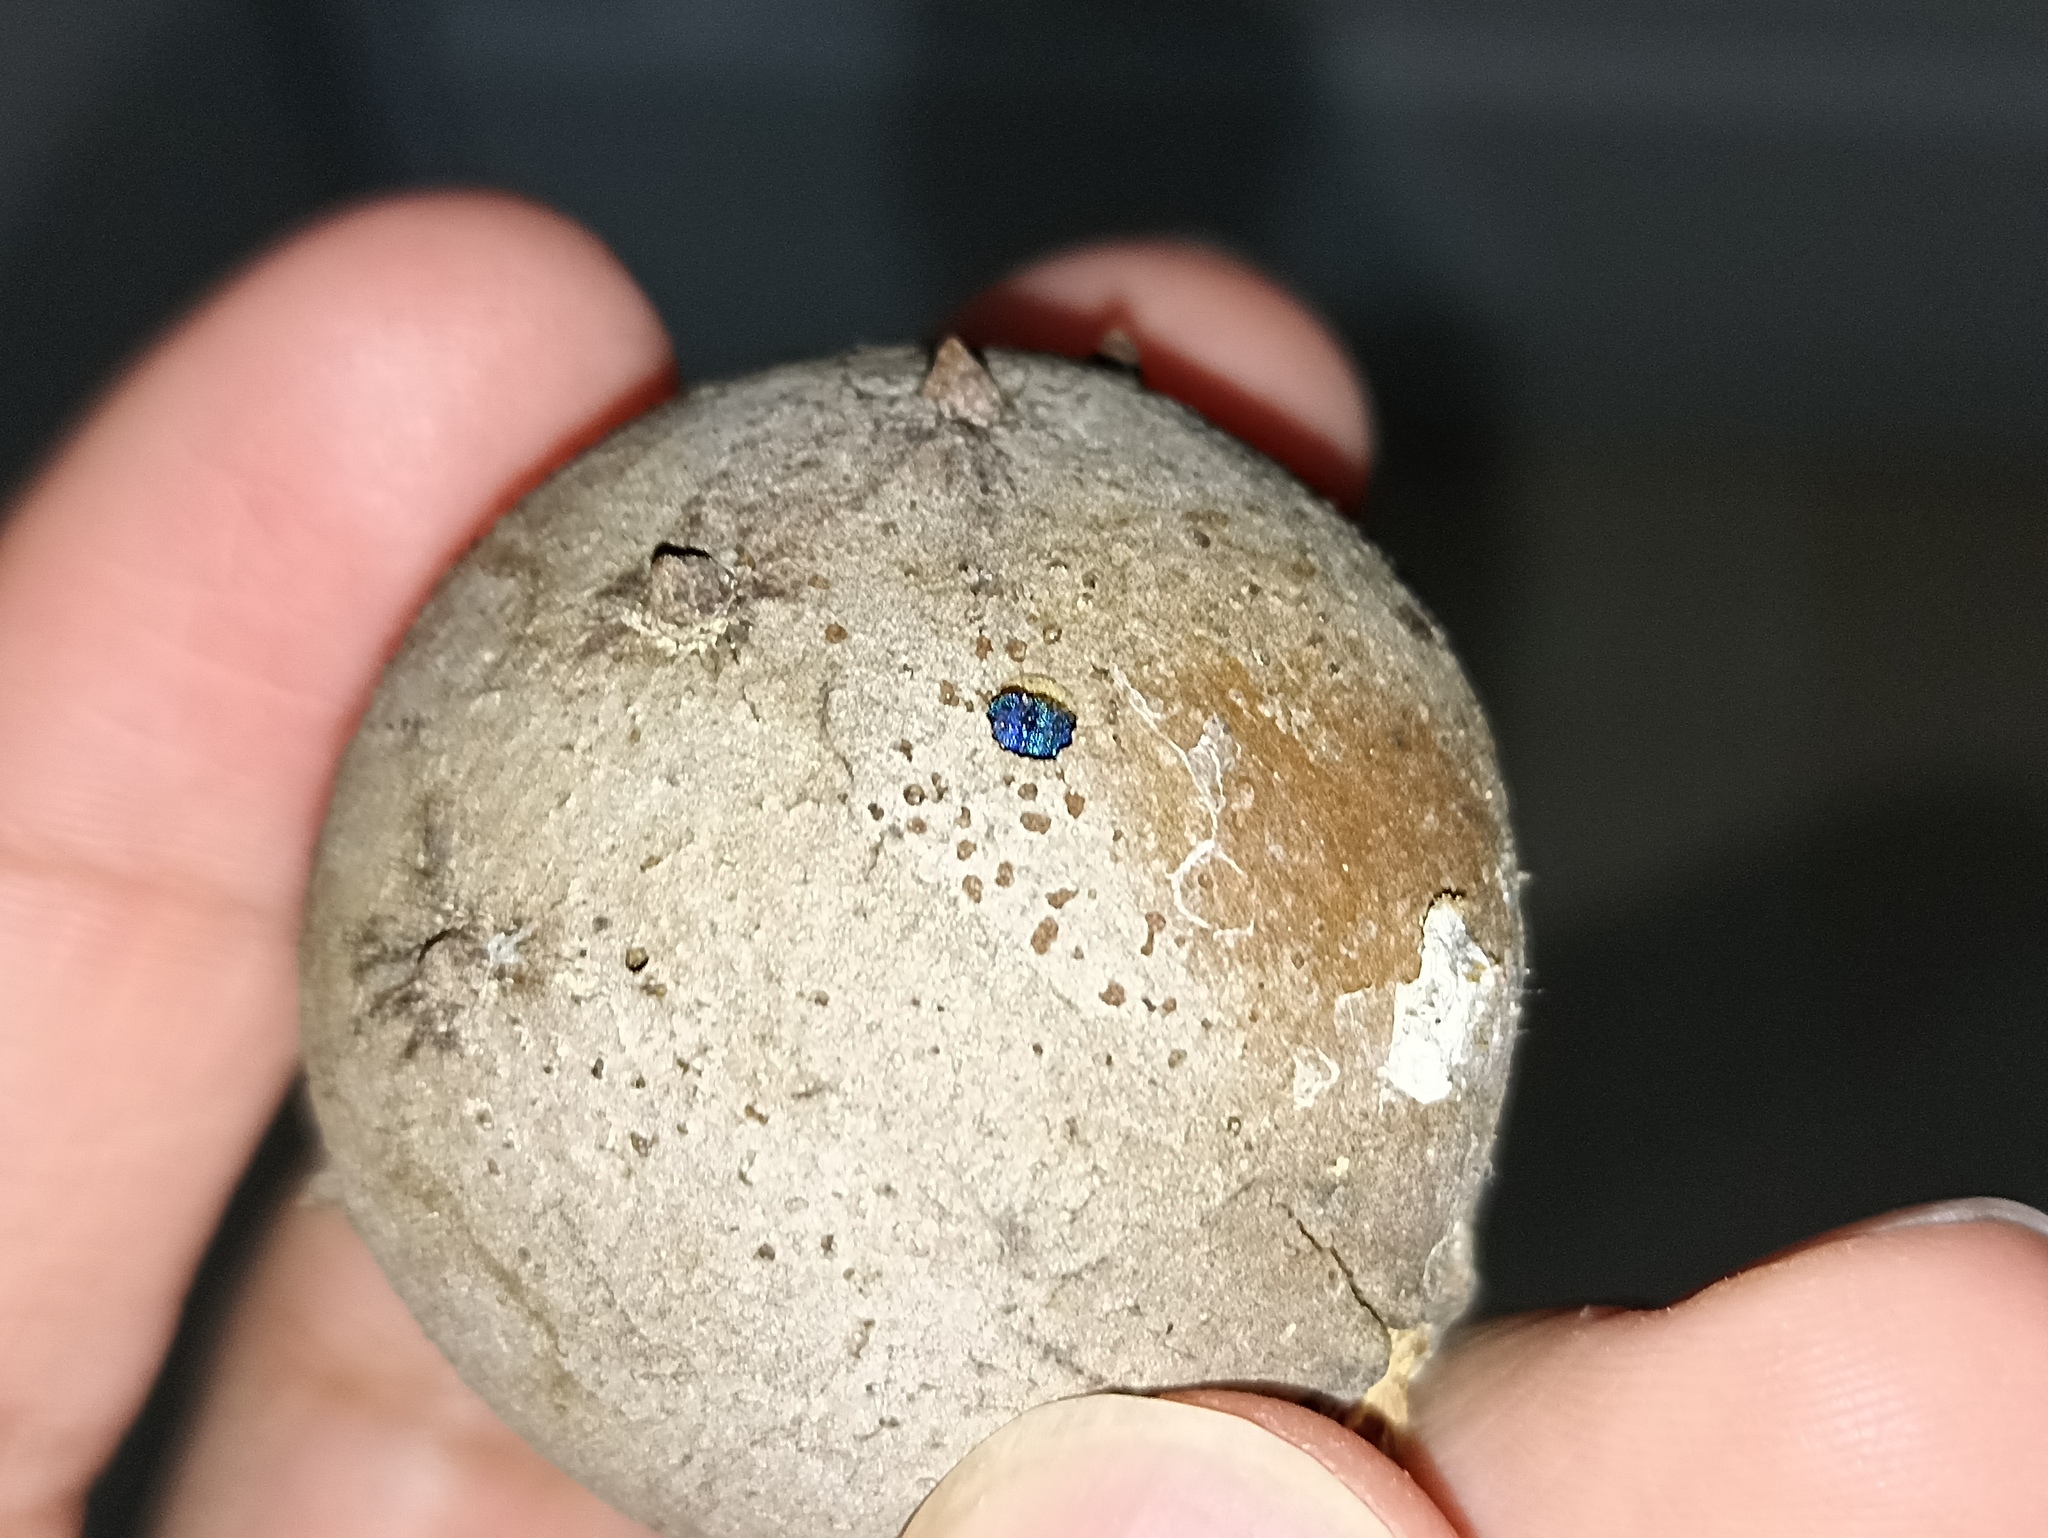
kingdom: Animalia
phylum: Arthropoda
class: Insecta
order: Hymenoptera
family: Pompilidae
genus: Pepsis
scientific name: Pepsis cyanea
